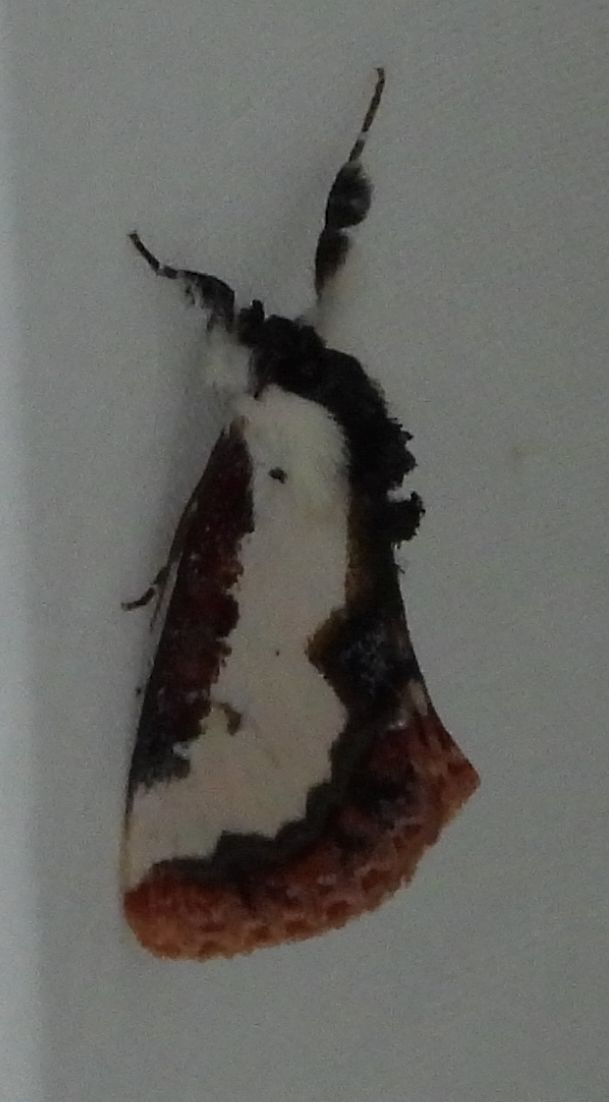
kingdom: Animalia
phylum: Arthropoda
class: Insecta
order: Lepidoptera
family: Noctuidae
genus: Eudryas
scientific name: Eudryas unio
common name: Pearly wood-nymph
